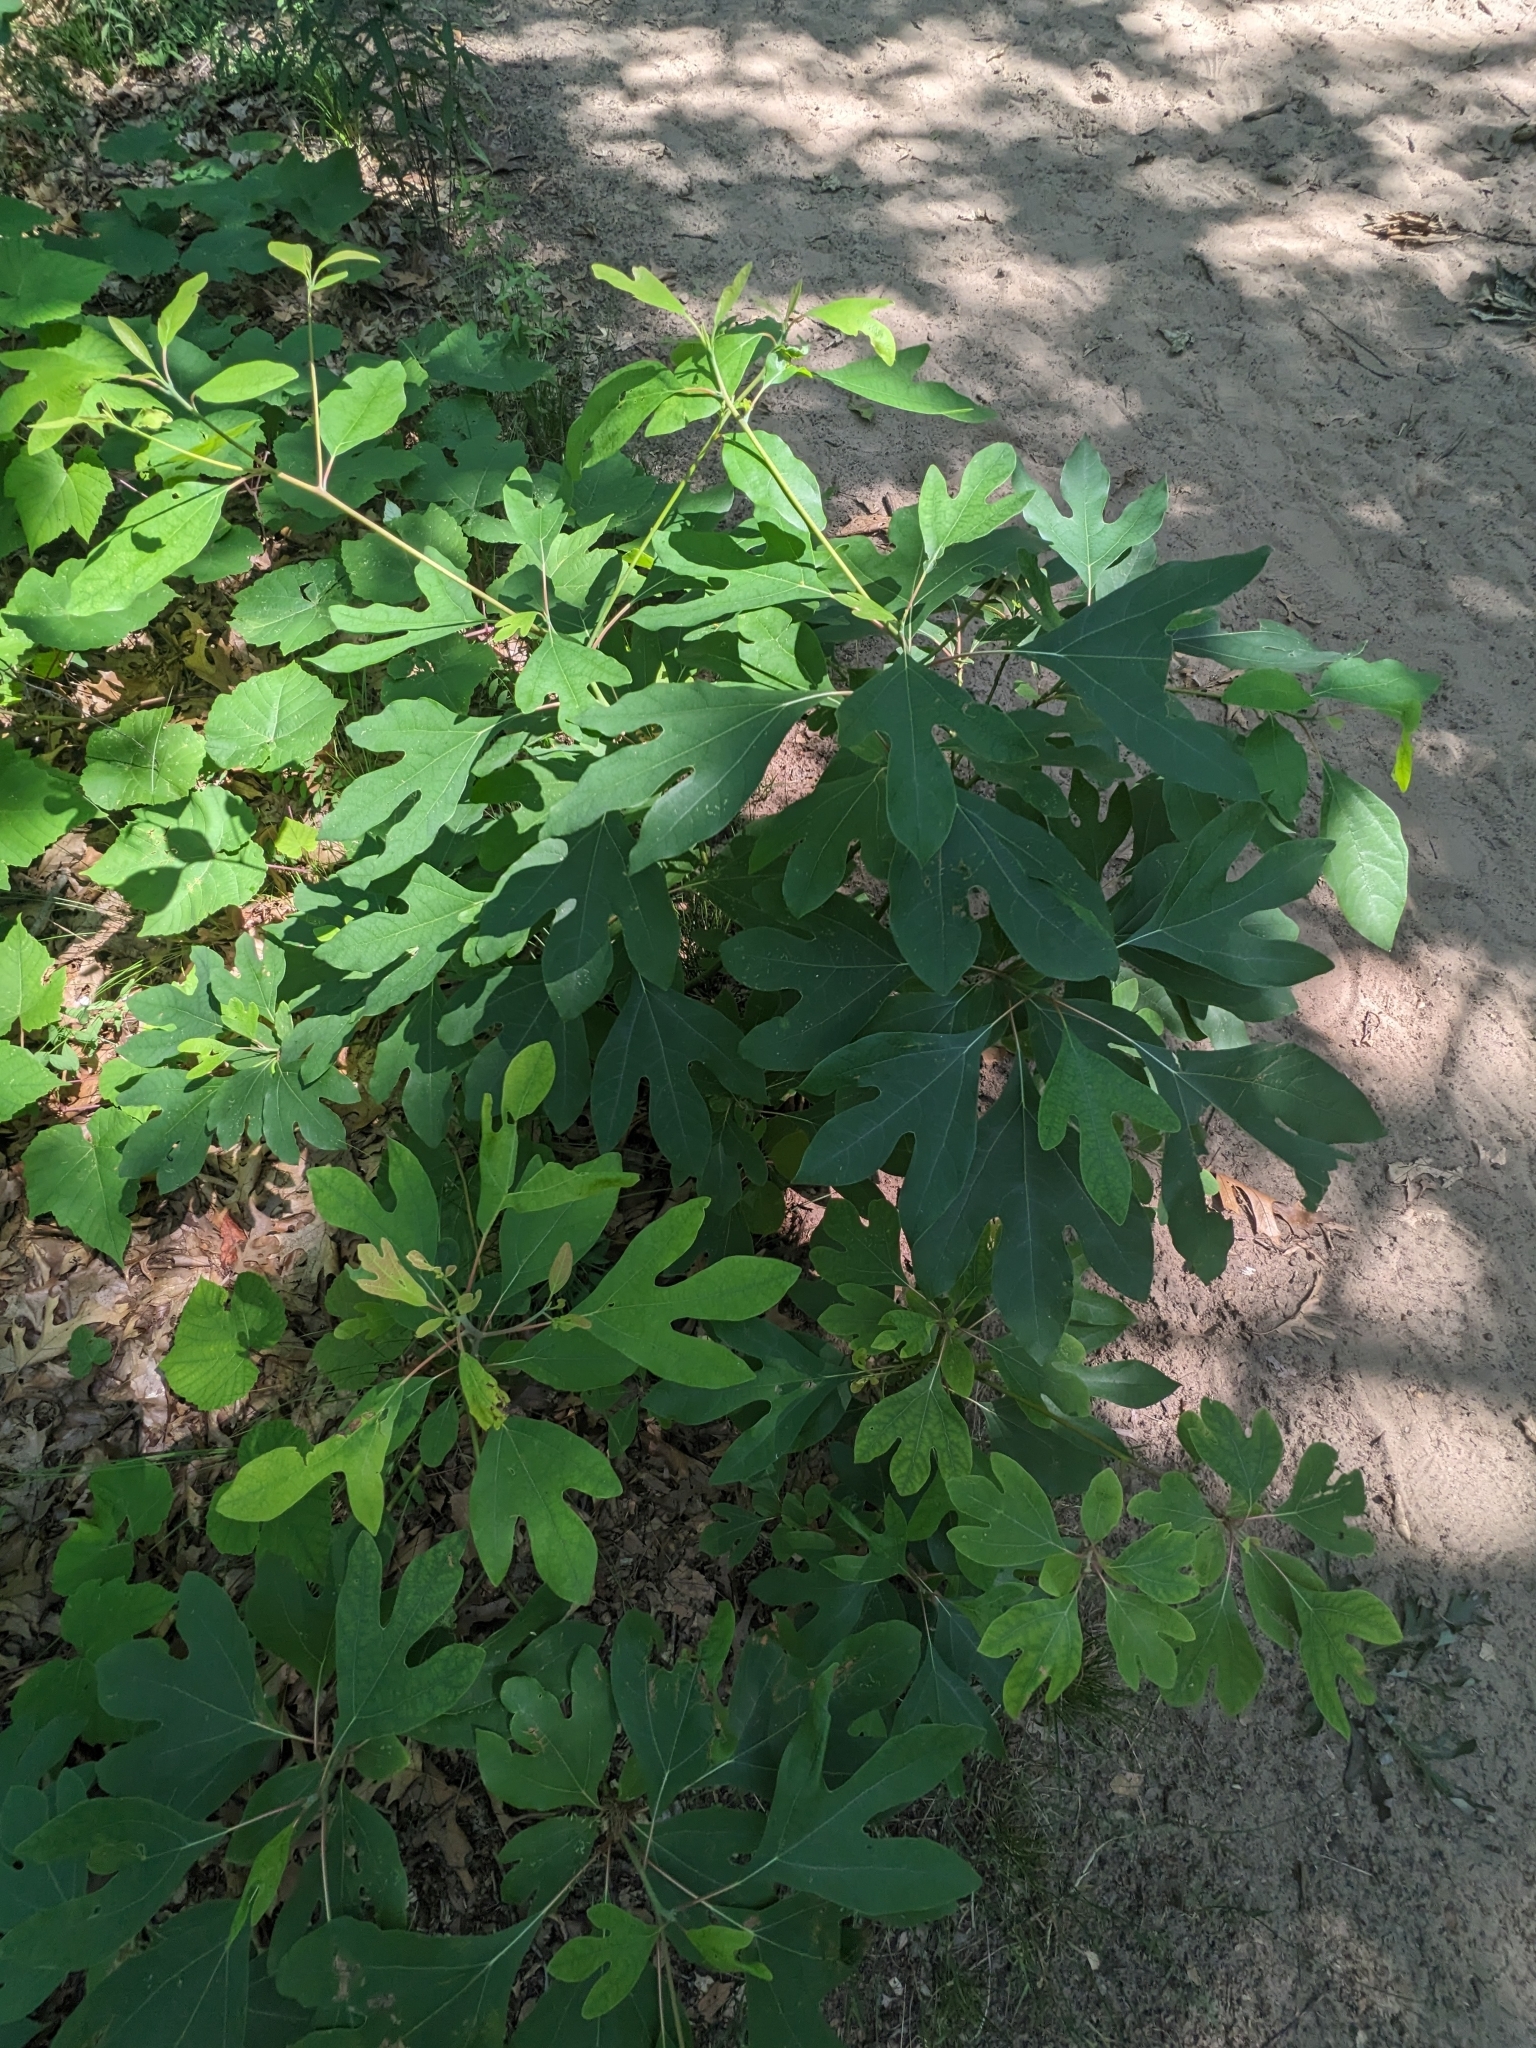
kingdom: Plantae
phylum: Tracheophyta
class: Magnoliopsida
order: Laurales
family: Lauraceae
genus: Sassafras
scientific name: Sassafras albidum
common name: Sassafras
